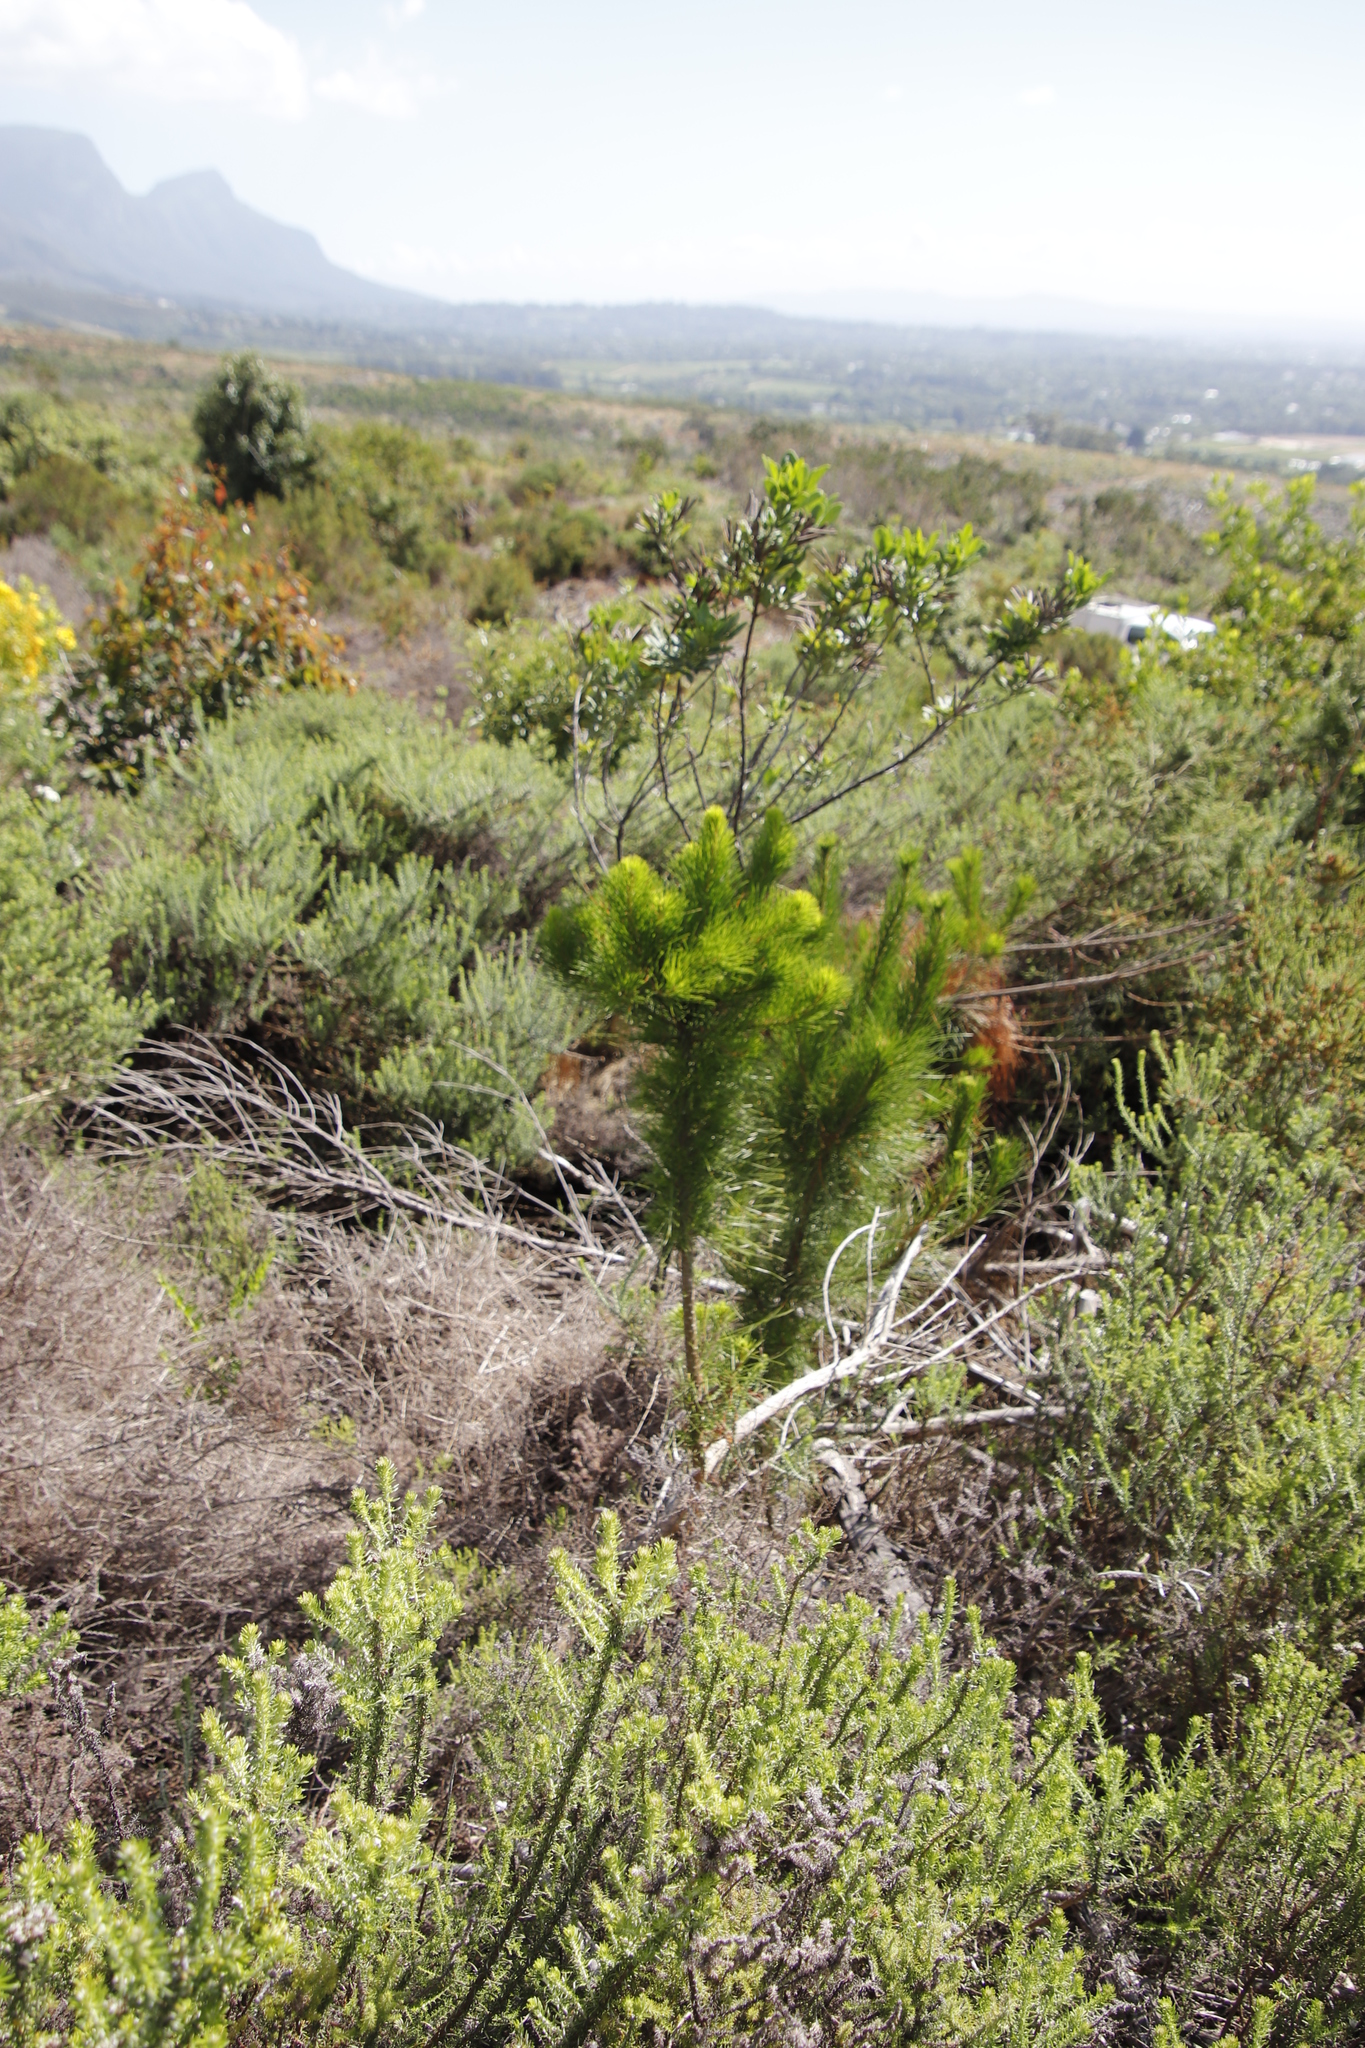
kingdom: Plantae
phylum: Tracheophyta
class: Pinopsida
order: Pinales
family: Pinaceae
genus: Pinus
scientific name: Pinus radiata
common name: Monterey pine
